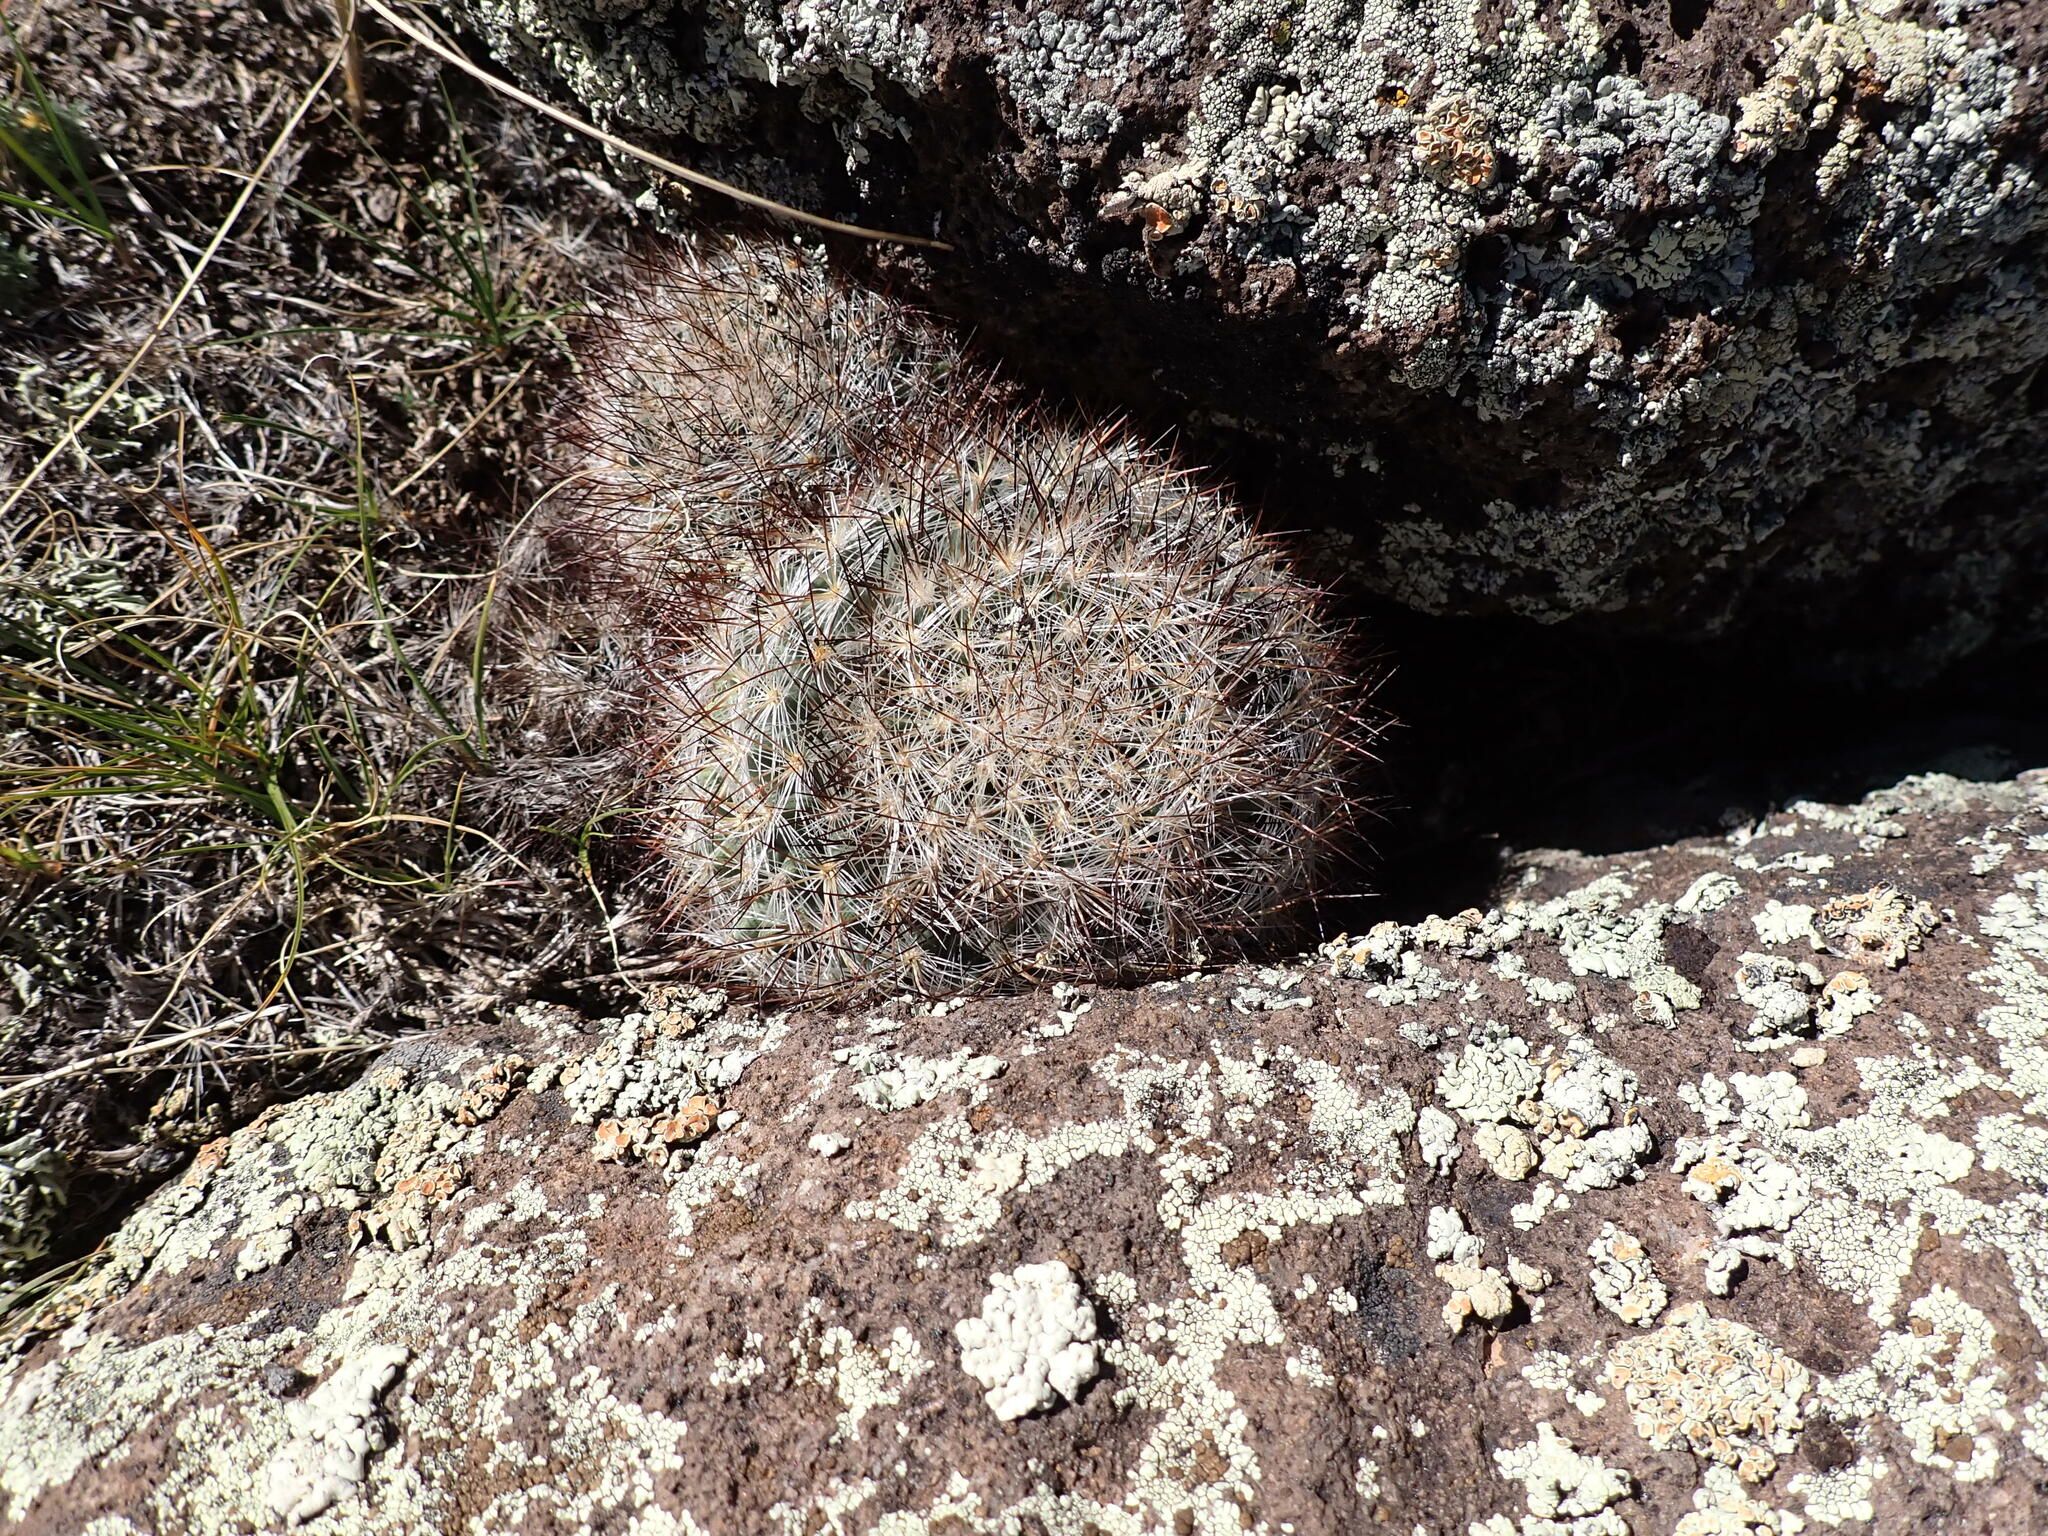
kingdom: Plantae
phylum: Tracheophyta
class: Magnoliopsida
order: Caryophyllales
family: Cactaceae
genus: Pediocactus
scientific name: Pediocactus simpsonii
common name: Simpson's hedgehog cactus
